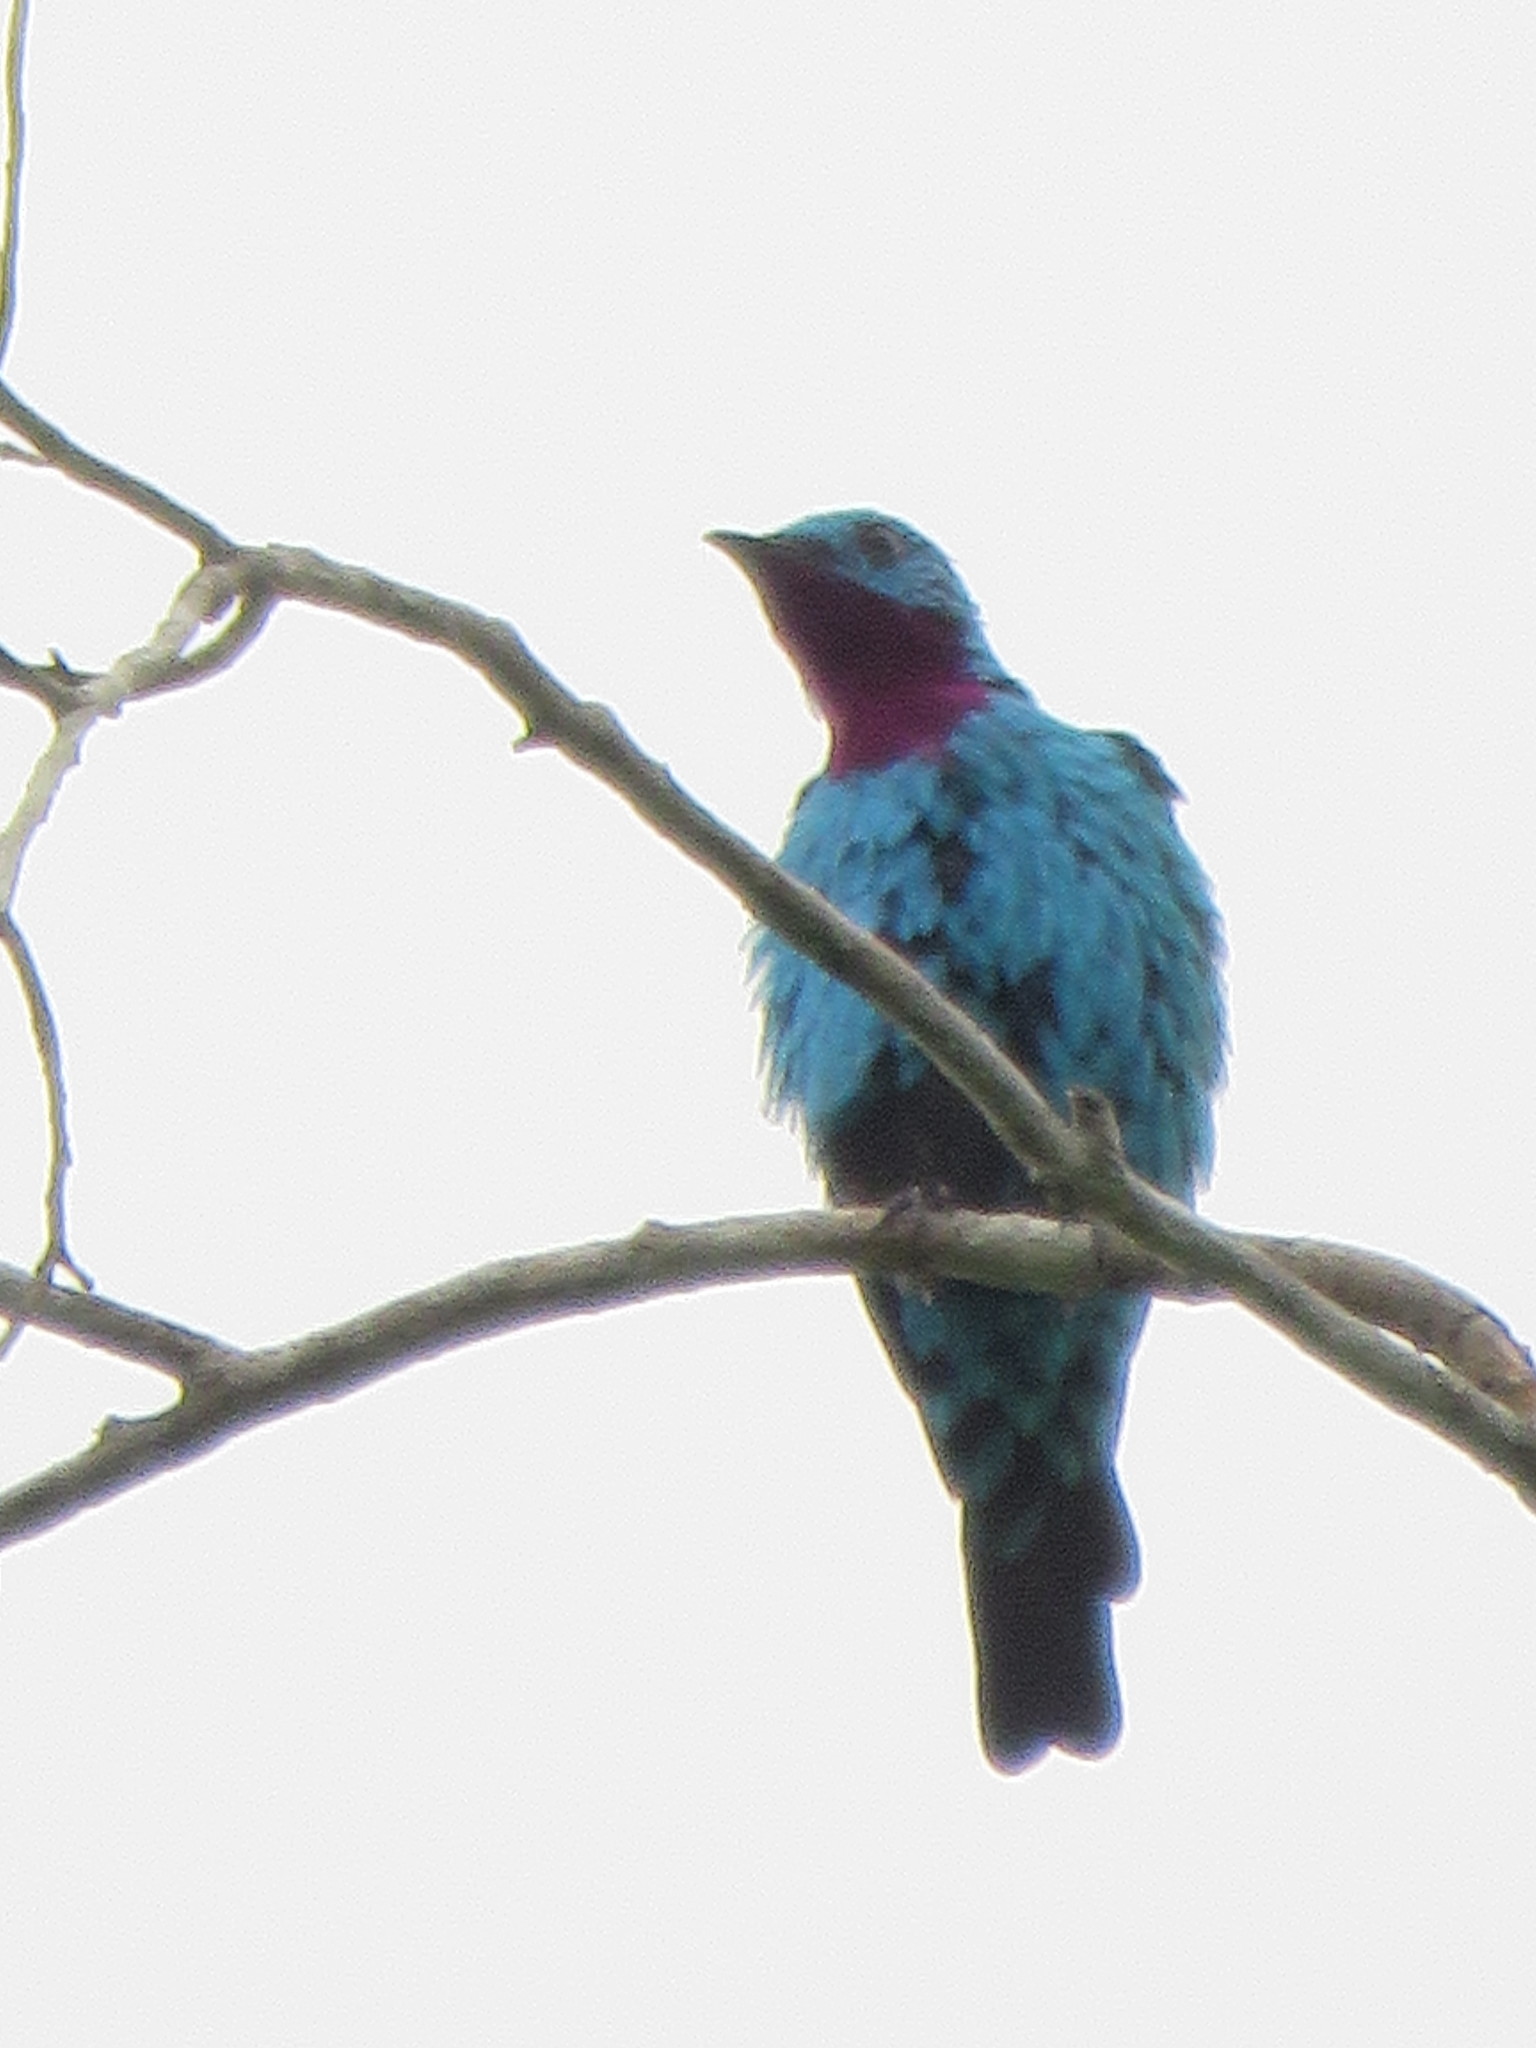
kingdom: Animalia
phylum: Chordata
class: Aves
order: Passeriformes
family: Cotingidae
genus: Cotinga
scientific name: Cotinga cayana
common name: Spangled cotinga
